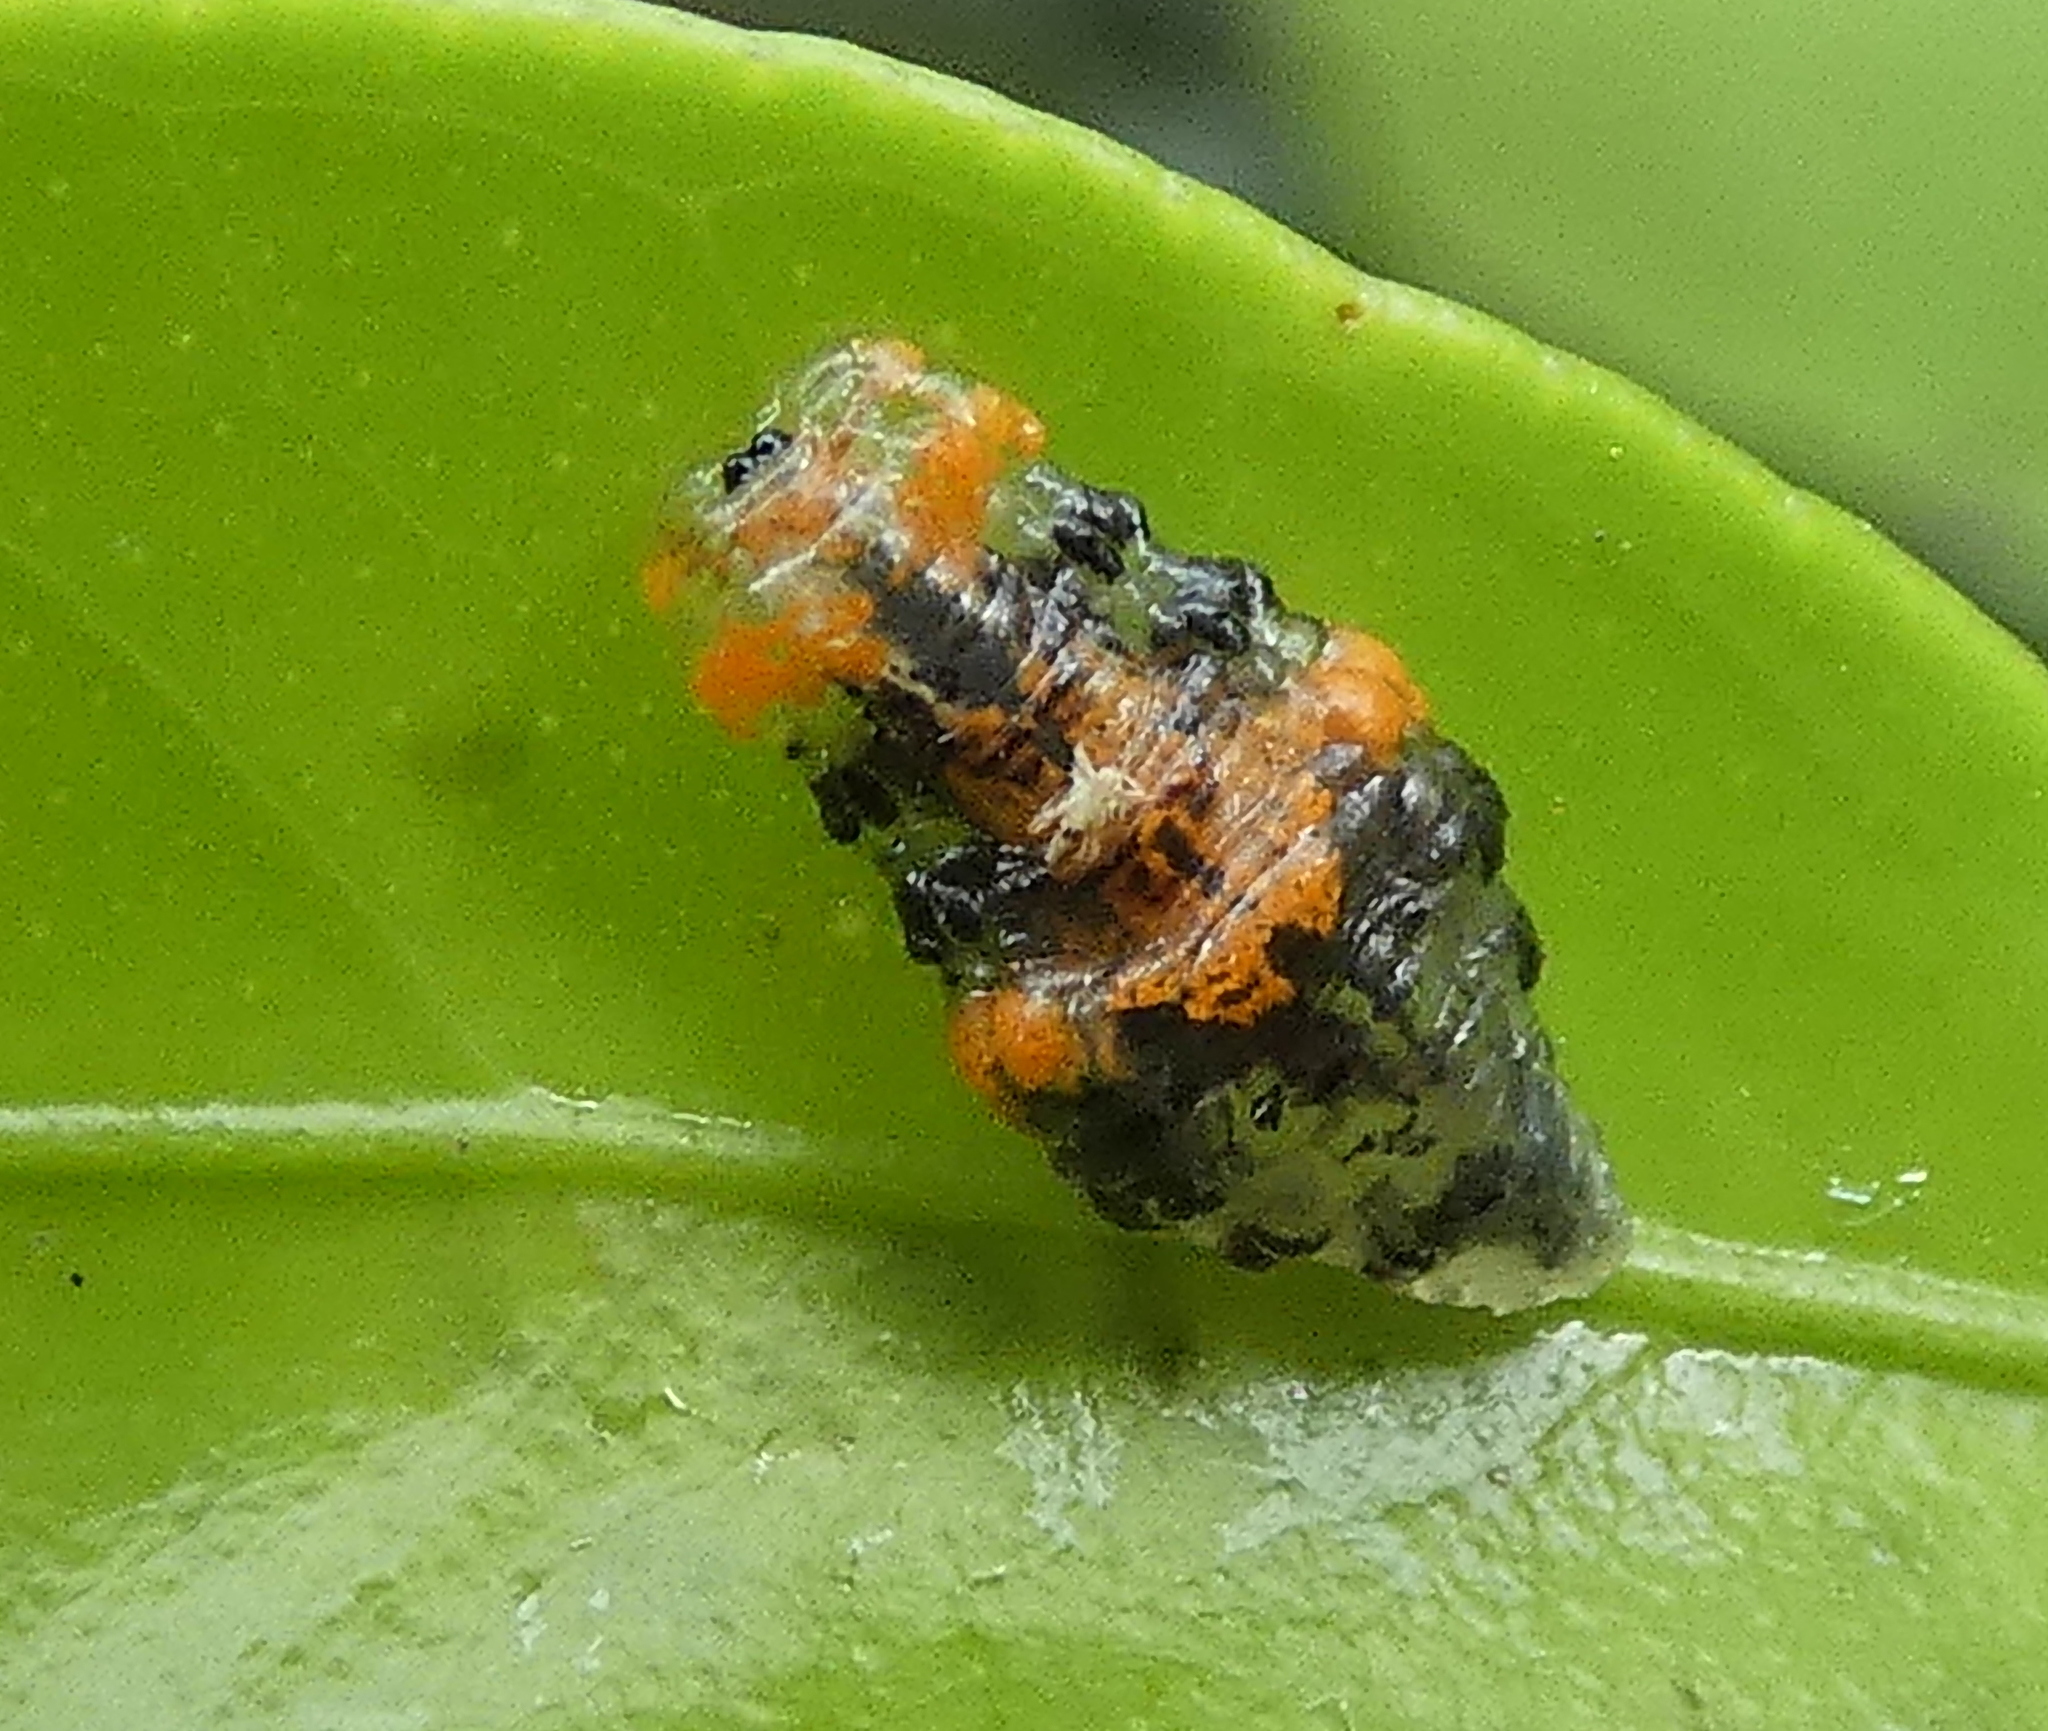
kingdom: Animalia
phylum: Arthropoda
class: Insecta
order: Diptera
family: Syrphidae
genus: Ocyptamus
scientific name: Ocyptamus gastrostactus
